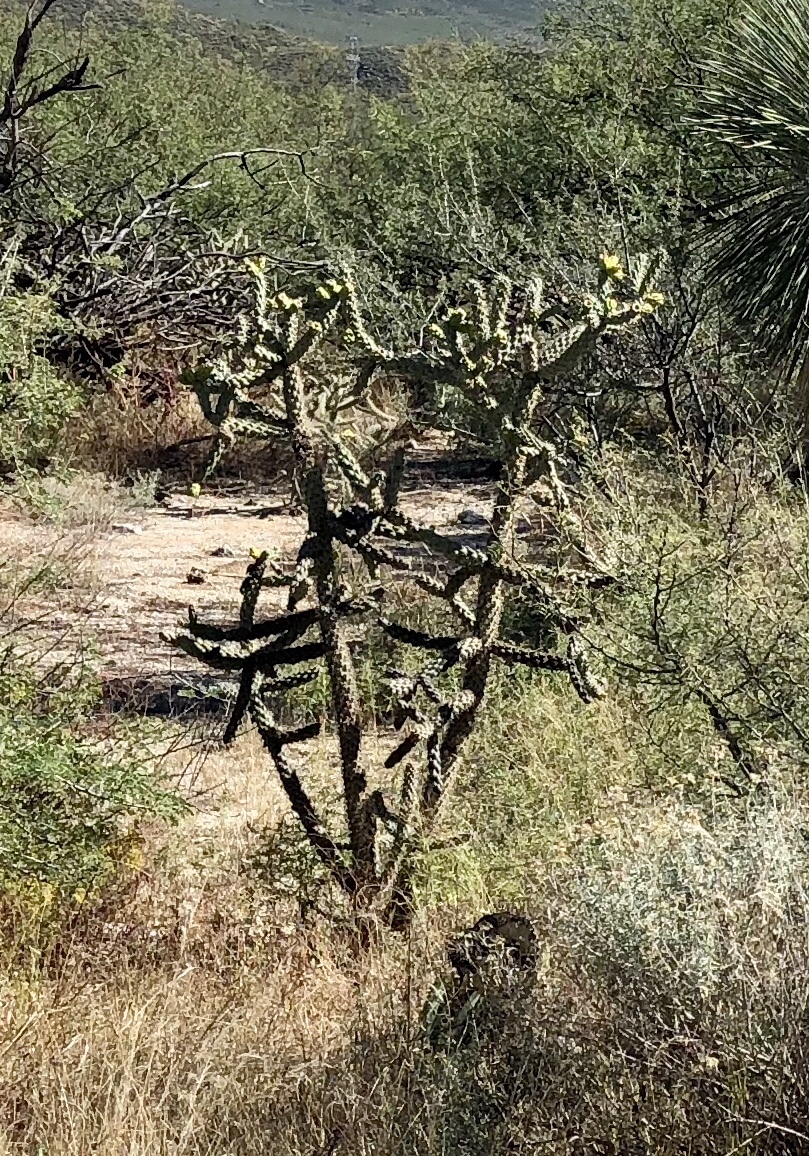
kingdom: Plantae
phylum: Tracheophyta
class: Magnoliopsida
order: Caryophyllales
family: Cactaceae
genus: Cylindropuntia
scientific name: Cylindropuntia imbricata
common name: Candelabrum cactus
